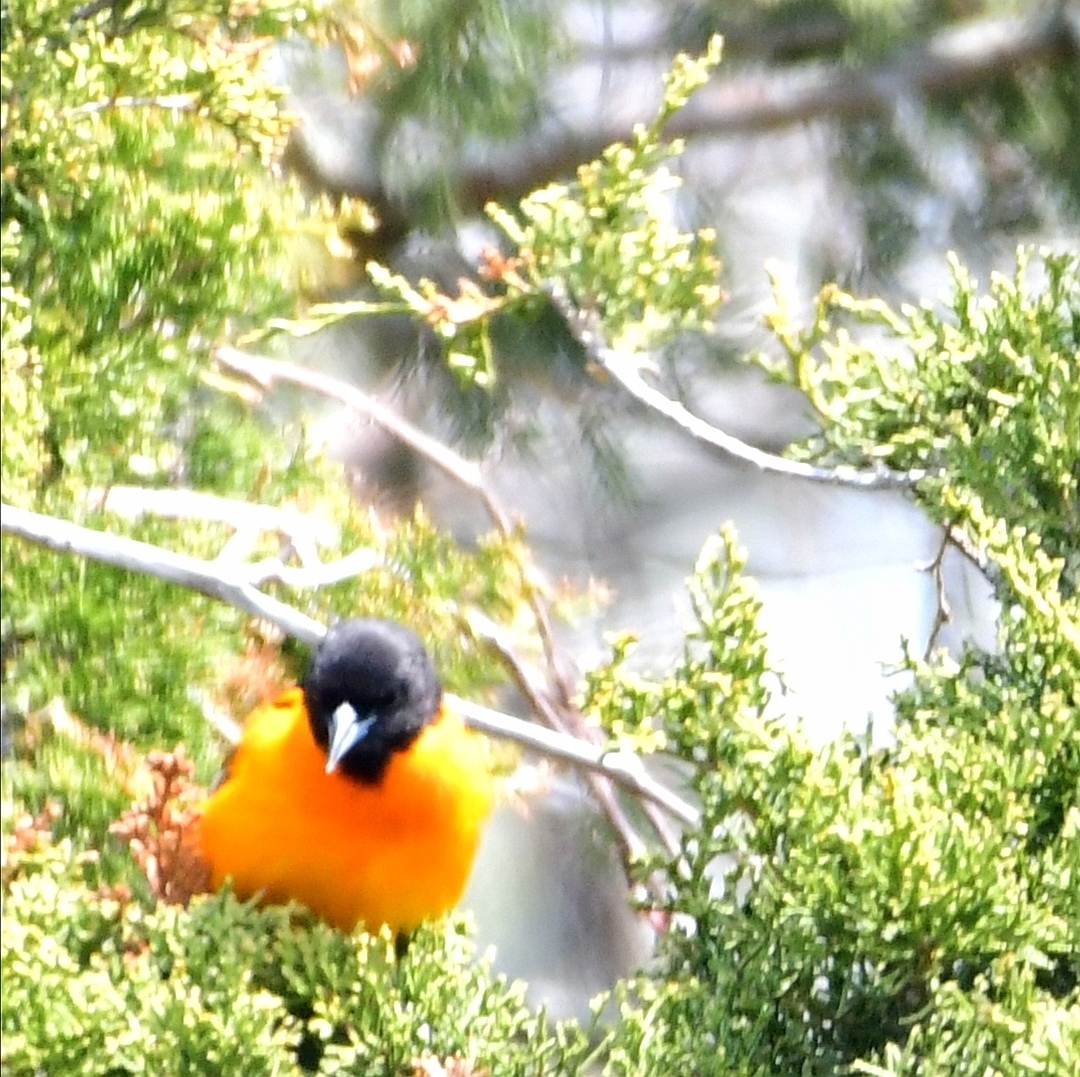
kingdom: Animalia
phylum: Chordata
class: Aves
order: Passeriformes
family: Icteridae
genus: Icterus
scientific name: Icterus galbula
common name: Baltimore oriole
